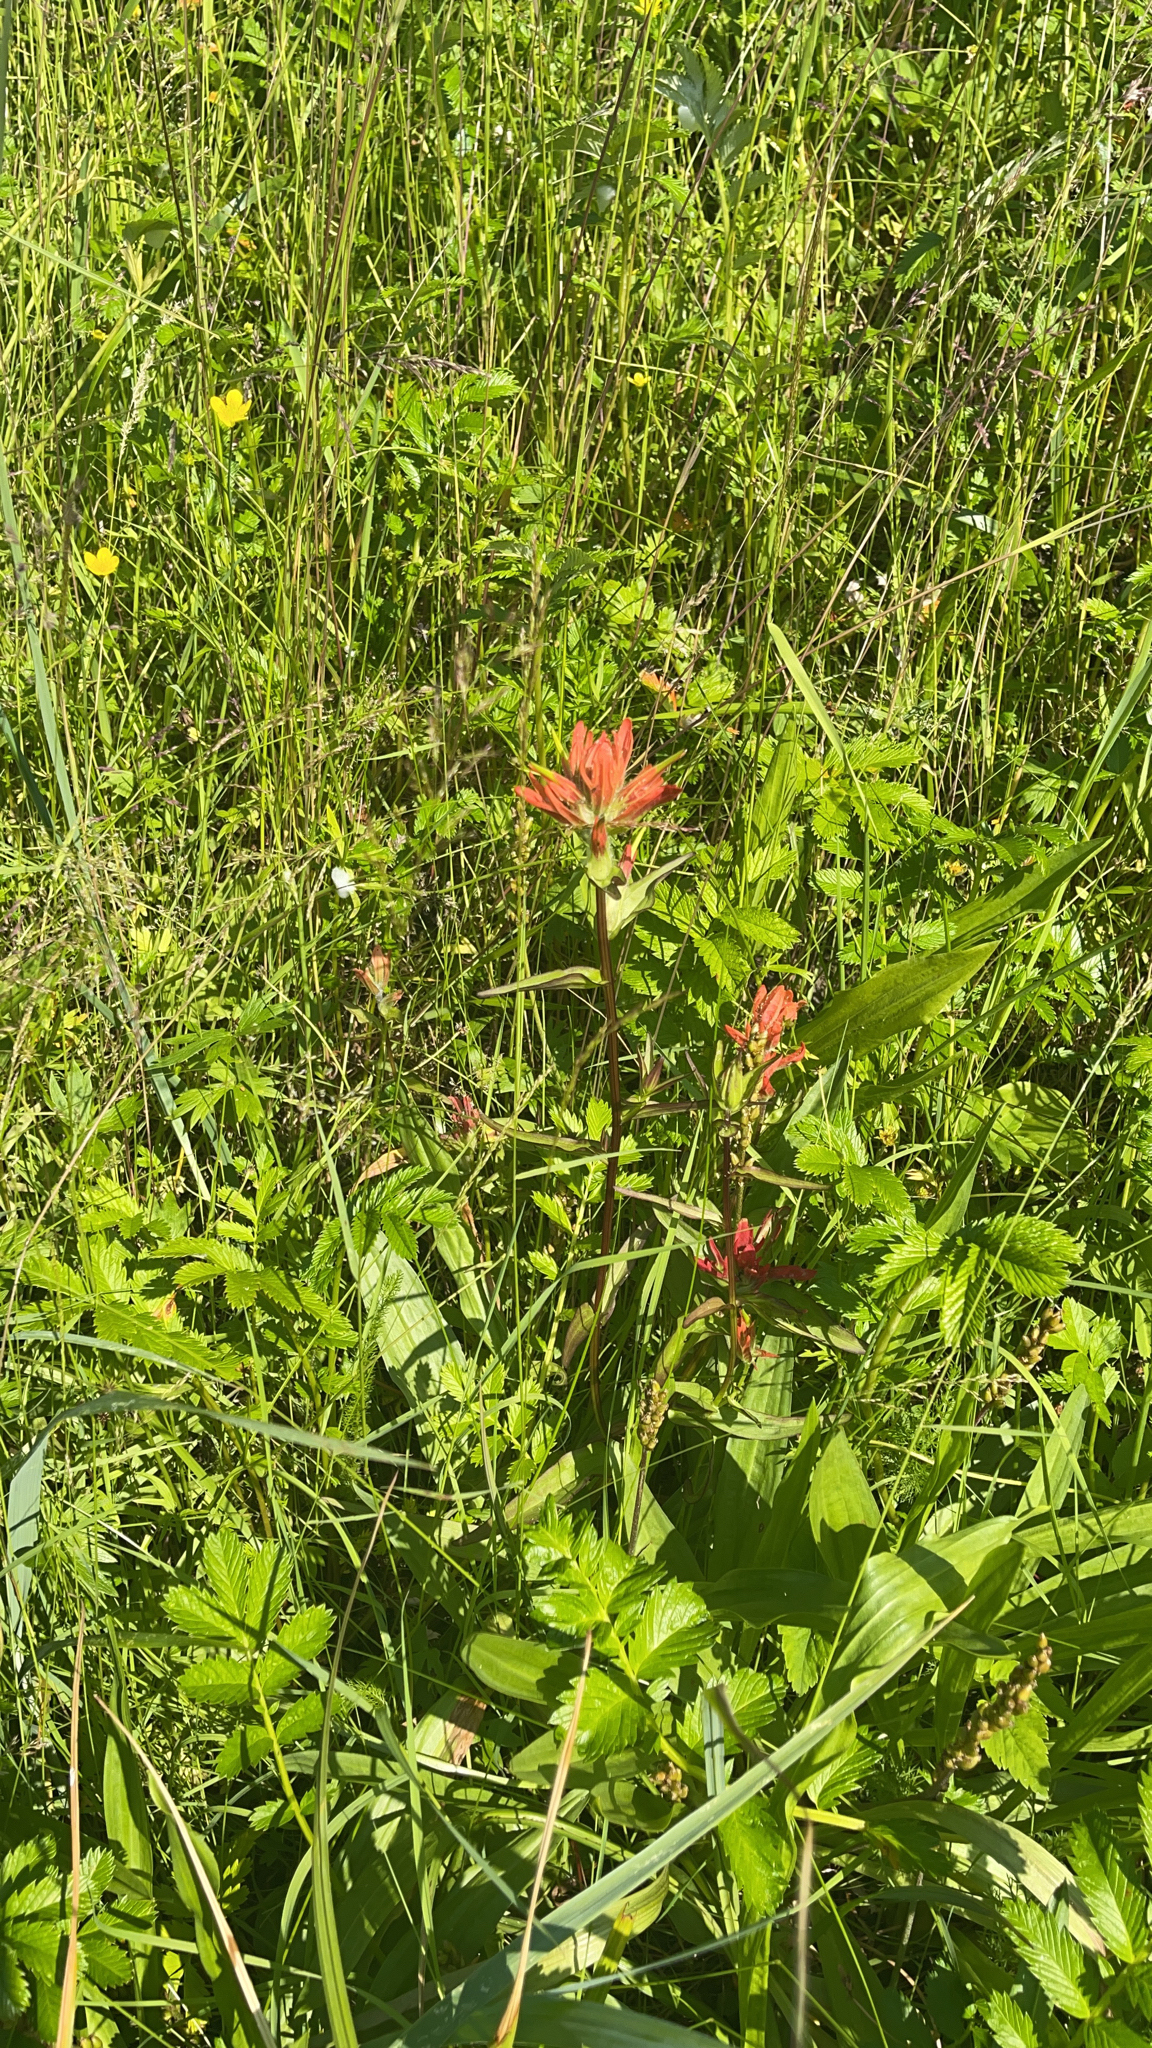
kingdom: Plantae
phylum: Tracheophyta
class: Magnoliopsida
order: Lamiales
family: Orobanchaceae
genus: Castilleja
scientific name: Castilleja miniata
